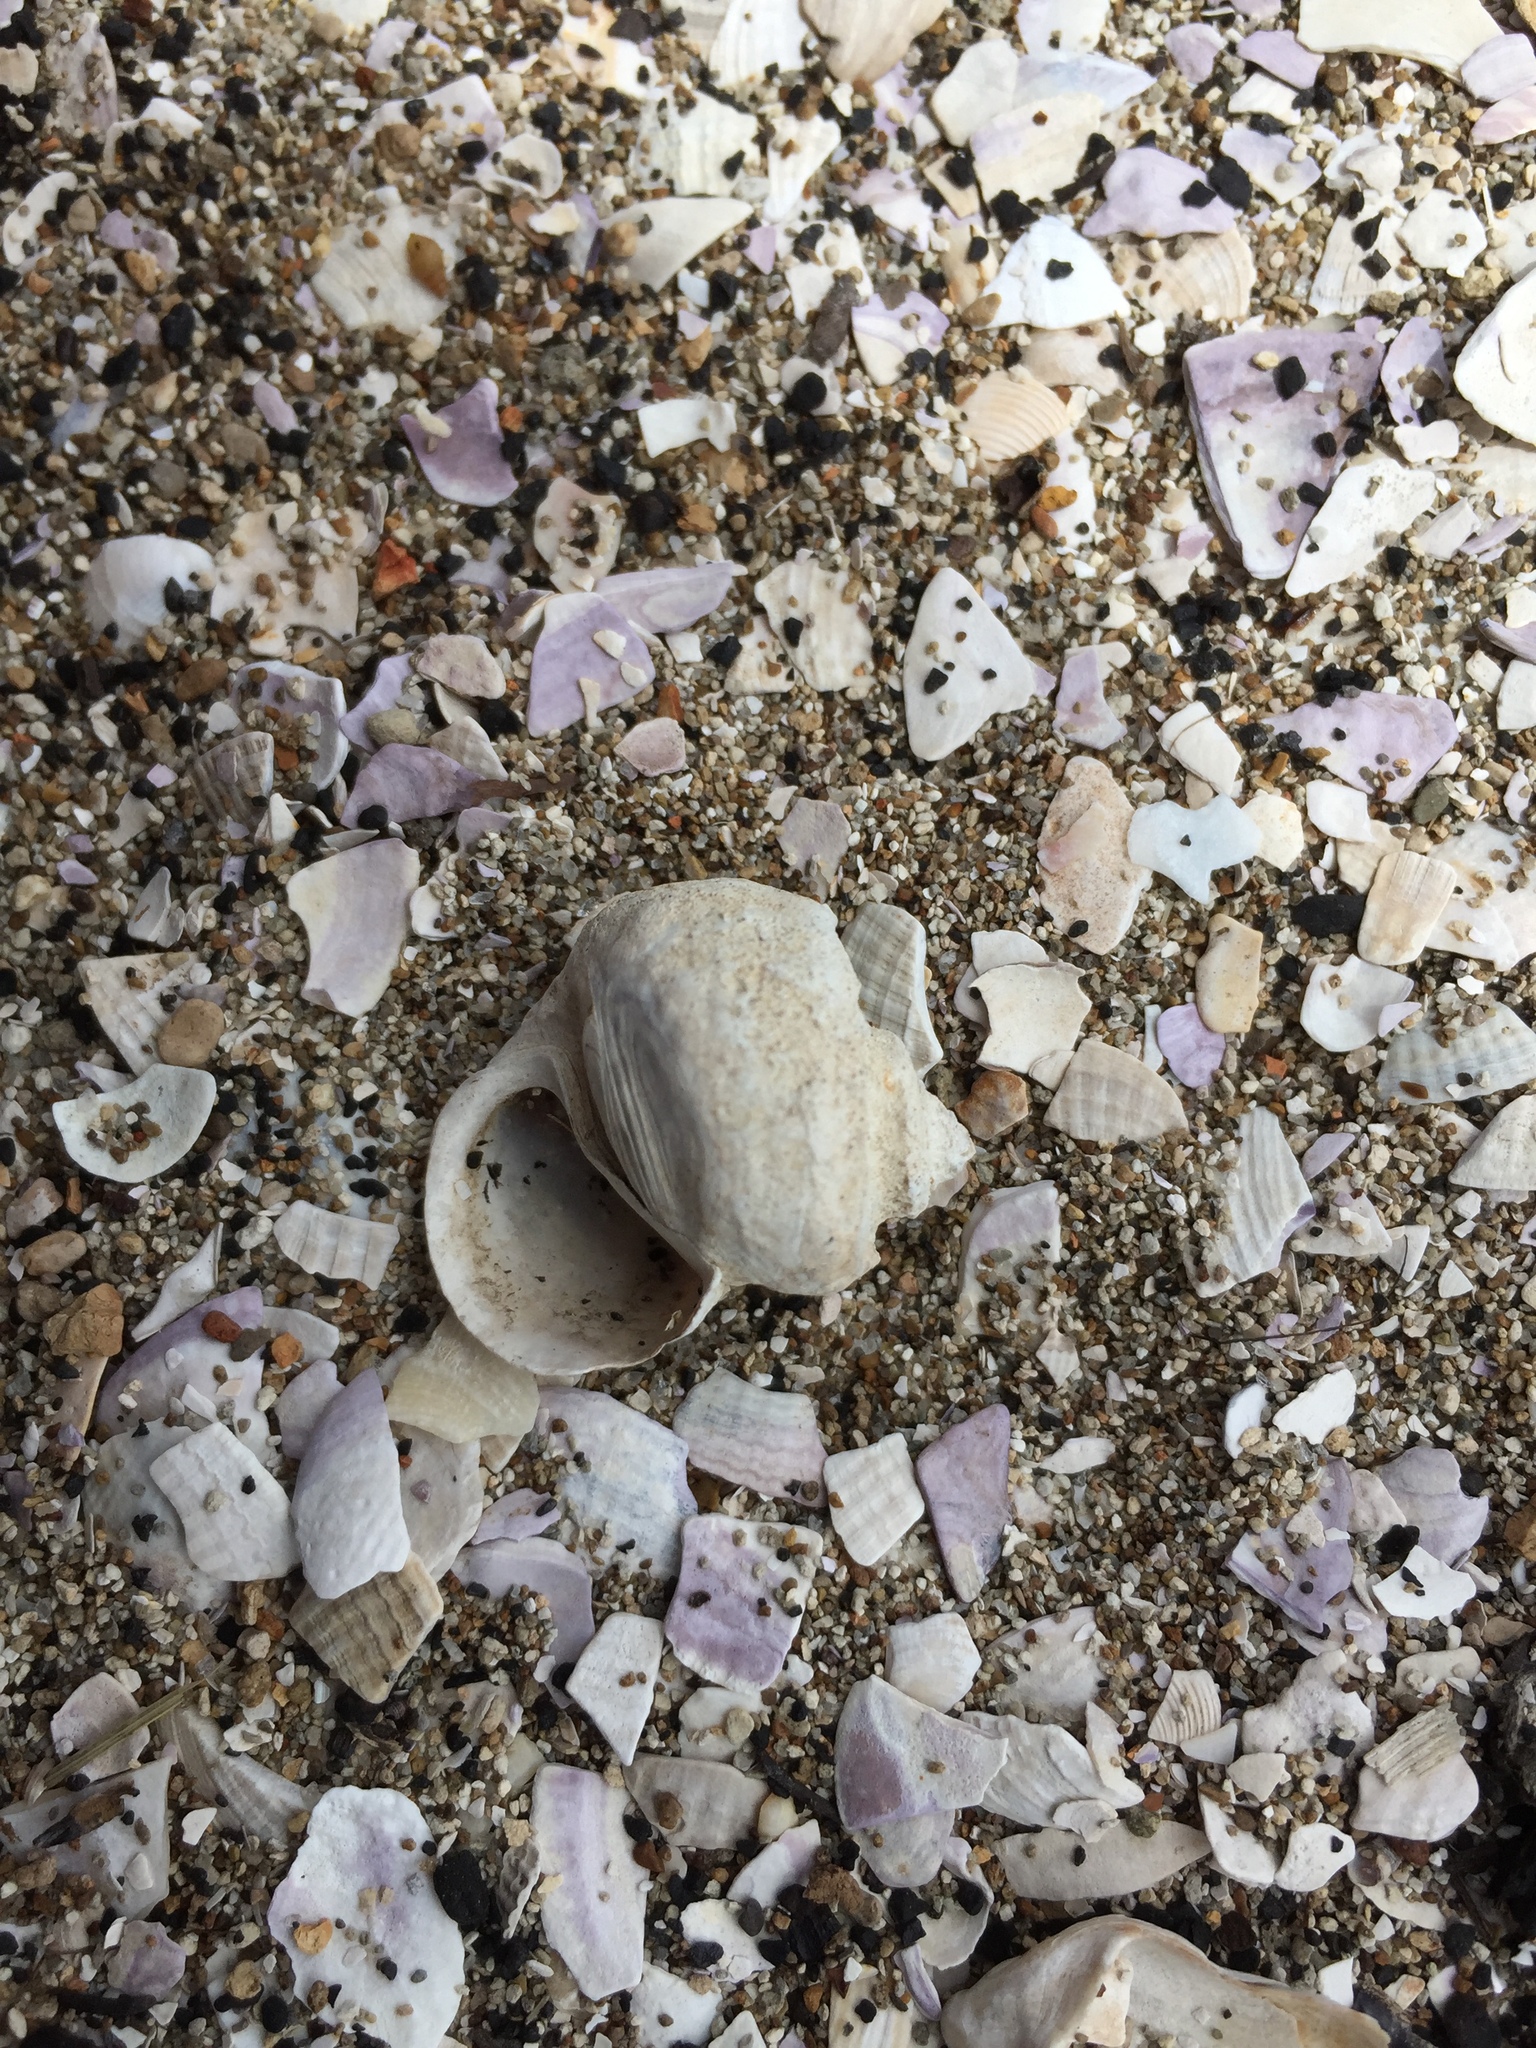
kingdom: Animalia
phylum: Mollusca
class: Gastropoda
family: Amphibolidae
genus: Amphibola
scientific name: Amphibola crenata
